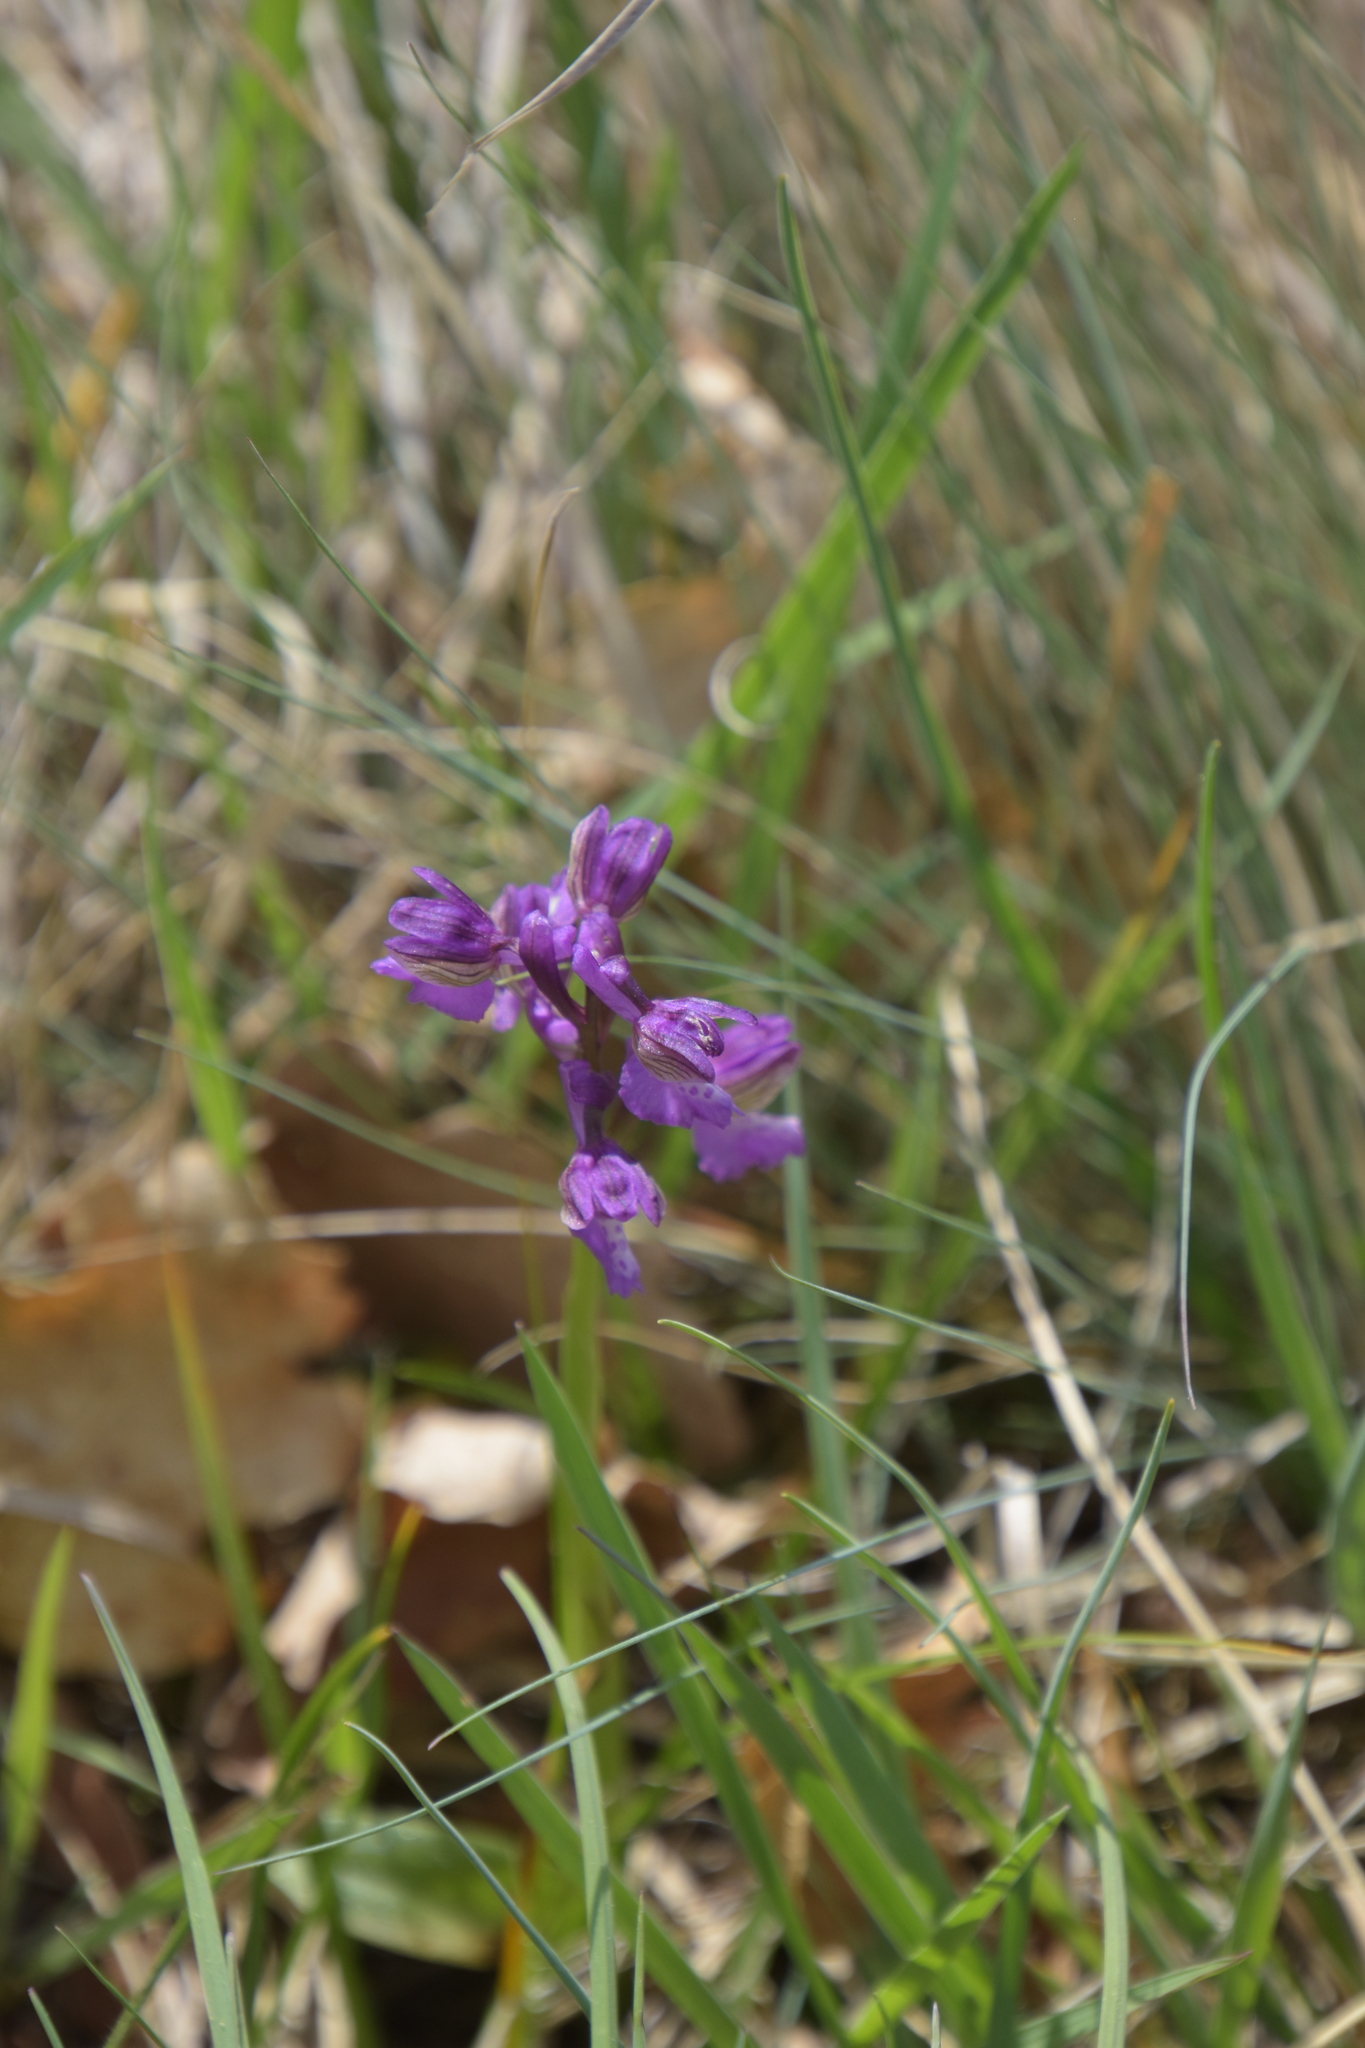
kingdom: Plantae
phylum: Tracheophyta
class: Liliopsida
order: Asparagales
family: Orchidaceae
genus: Anacamptis
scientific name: Anacamptis morio
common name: Green-winged orchid
